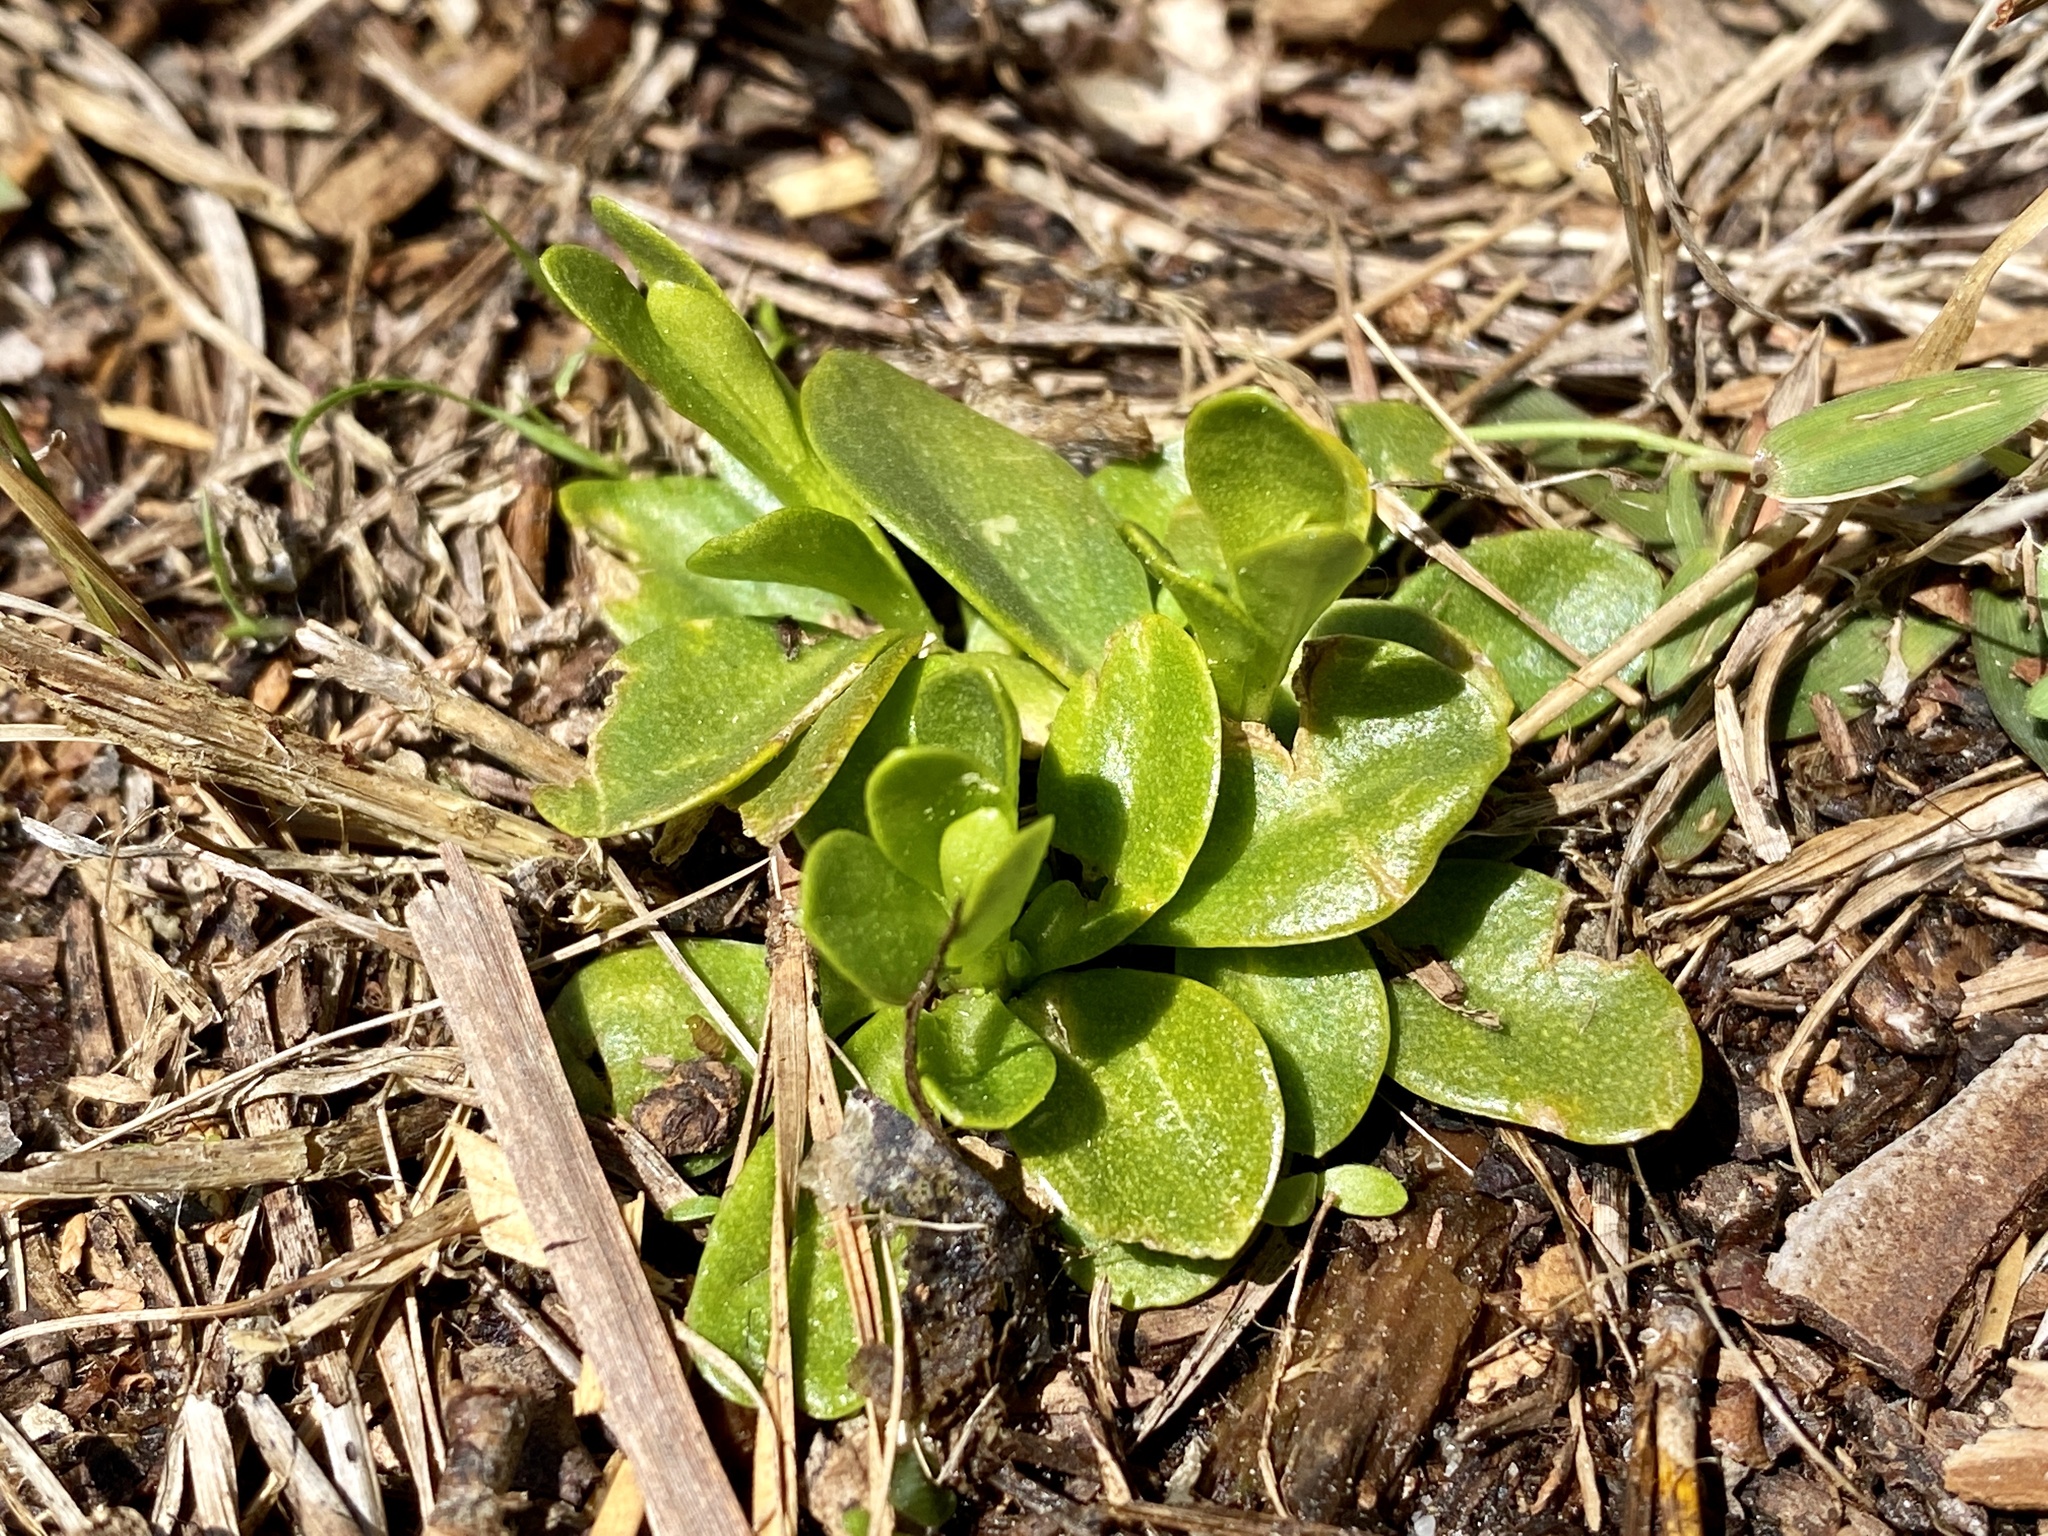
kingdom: Plantae
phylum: Tracheophyta
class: Magnoliopsida
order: Fabales
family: Polygalaceae
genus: Polygala
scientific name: Polygala lutea
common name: Orange milkwort
